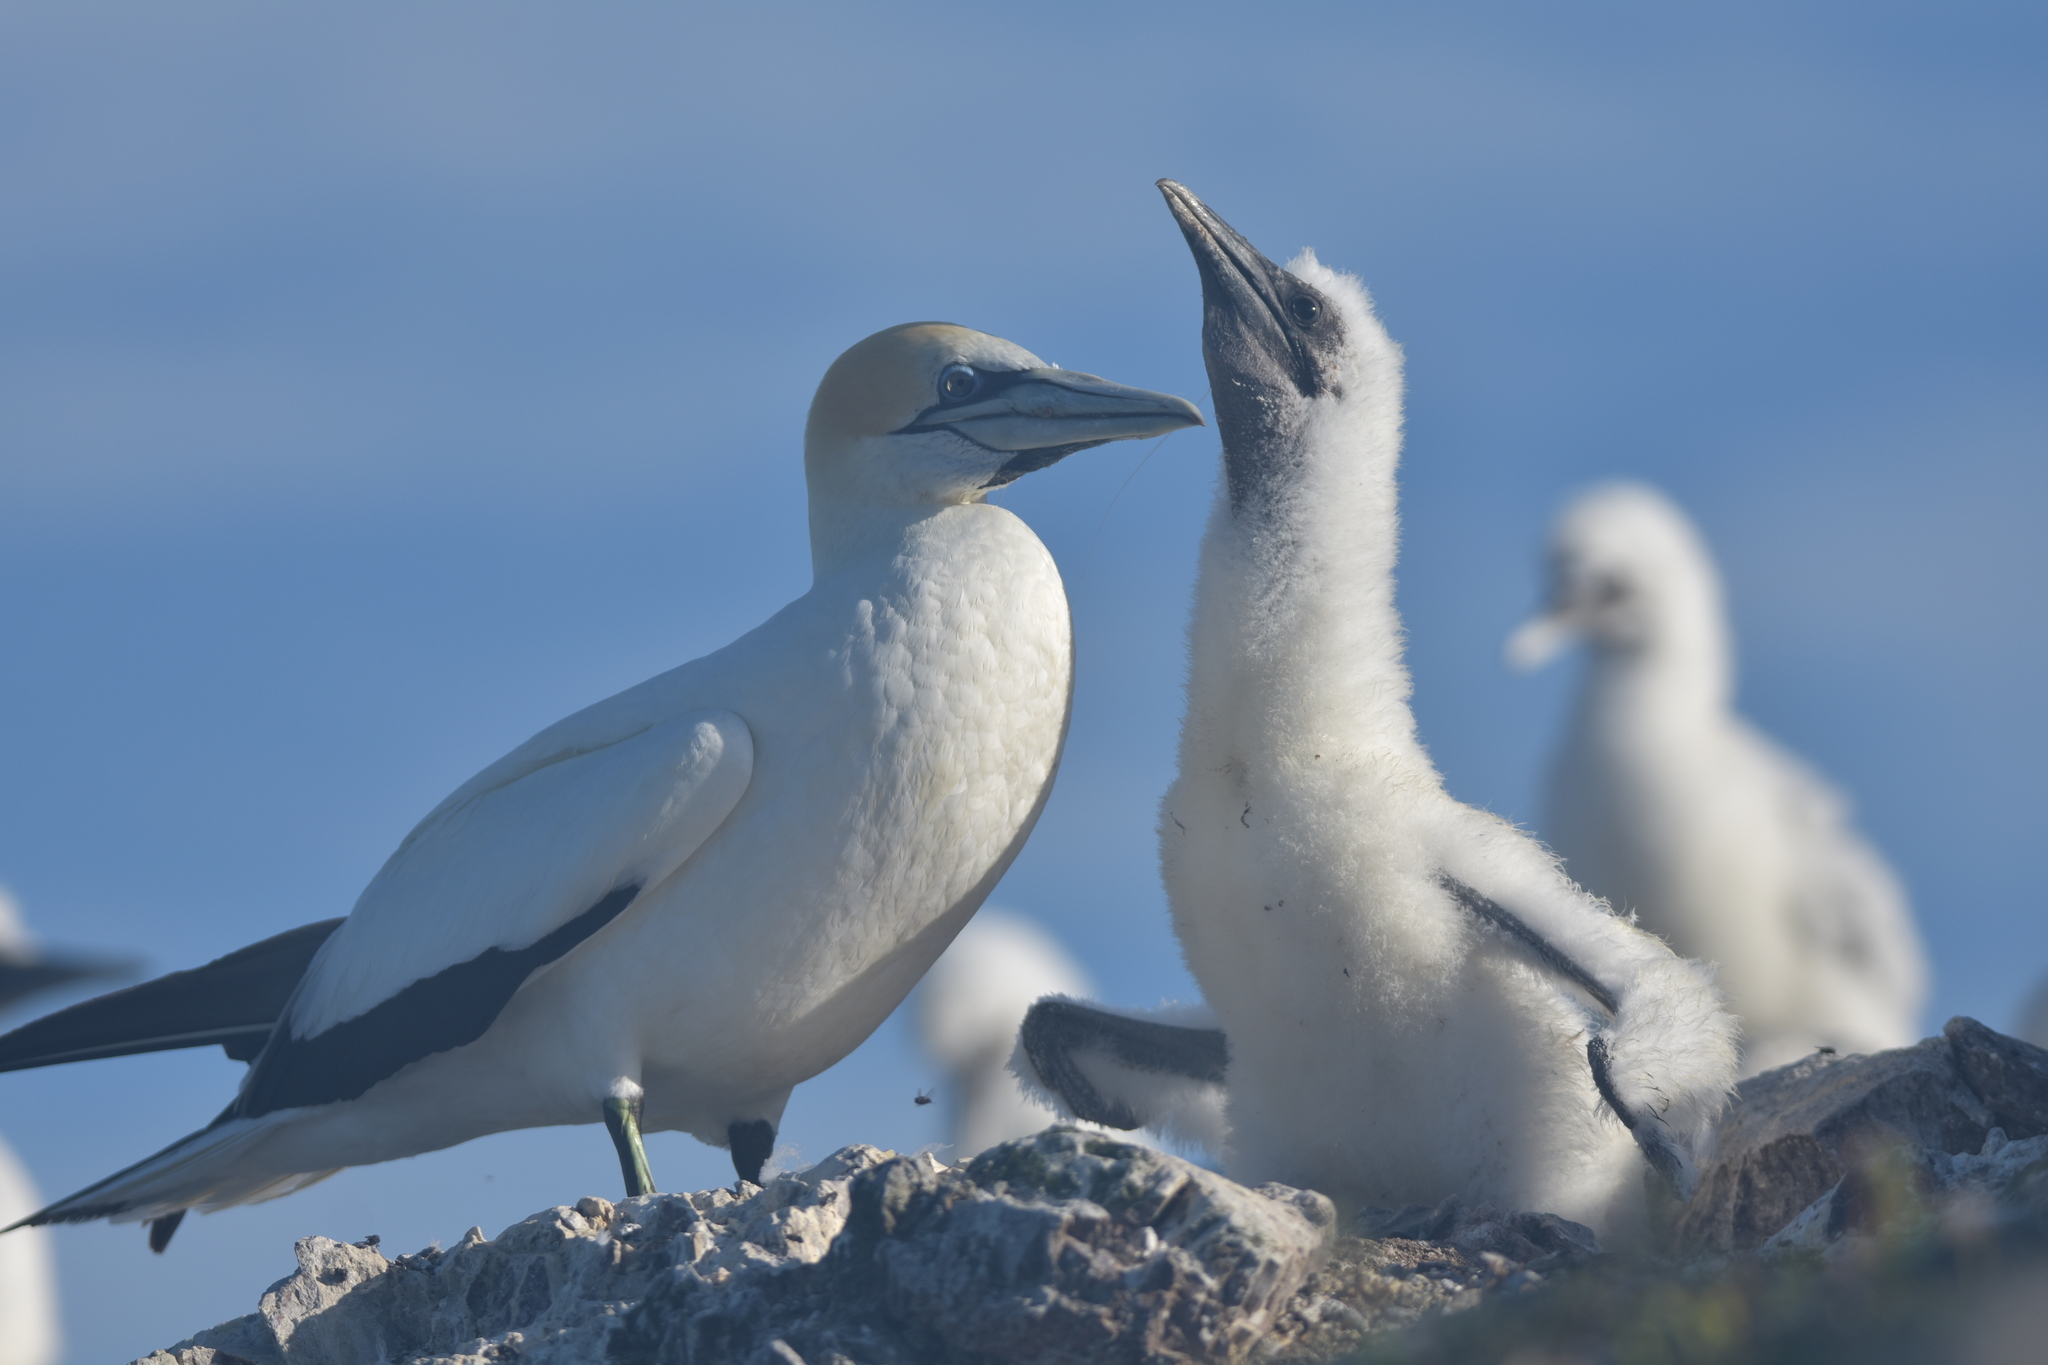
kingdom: Animalia
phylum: Chordata
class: Aves
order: Suliformes
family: Sulidae
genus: Morus
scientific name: Morus serrator
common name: Australasian gannet
